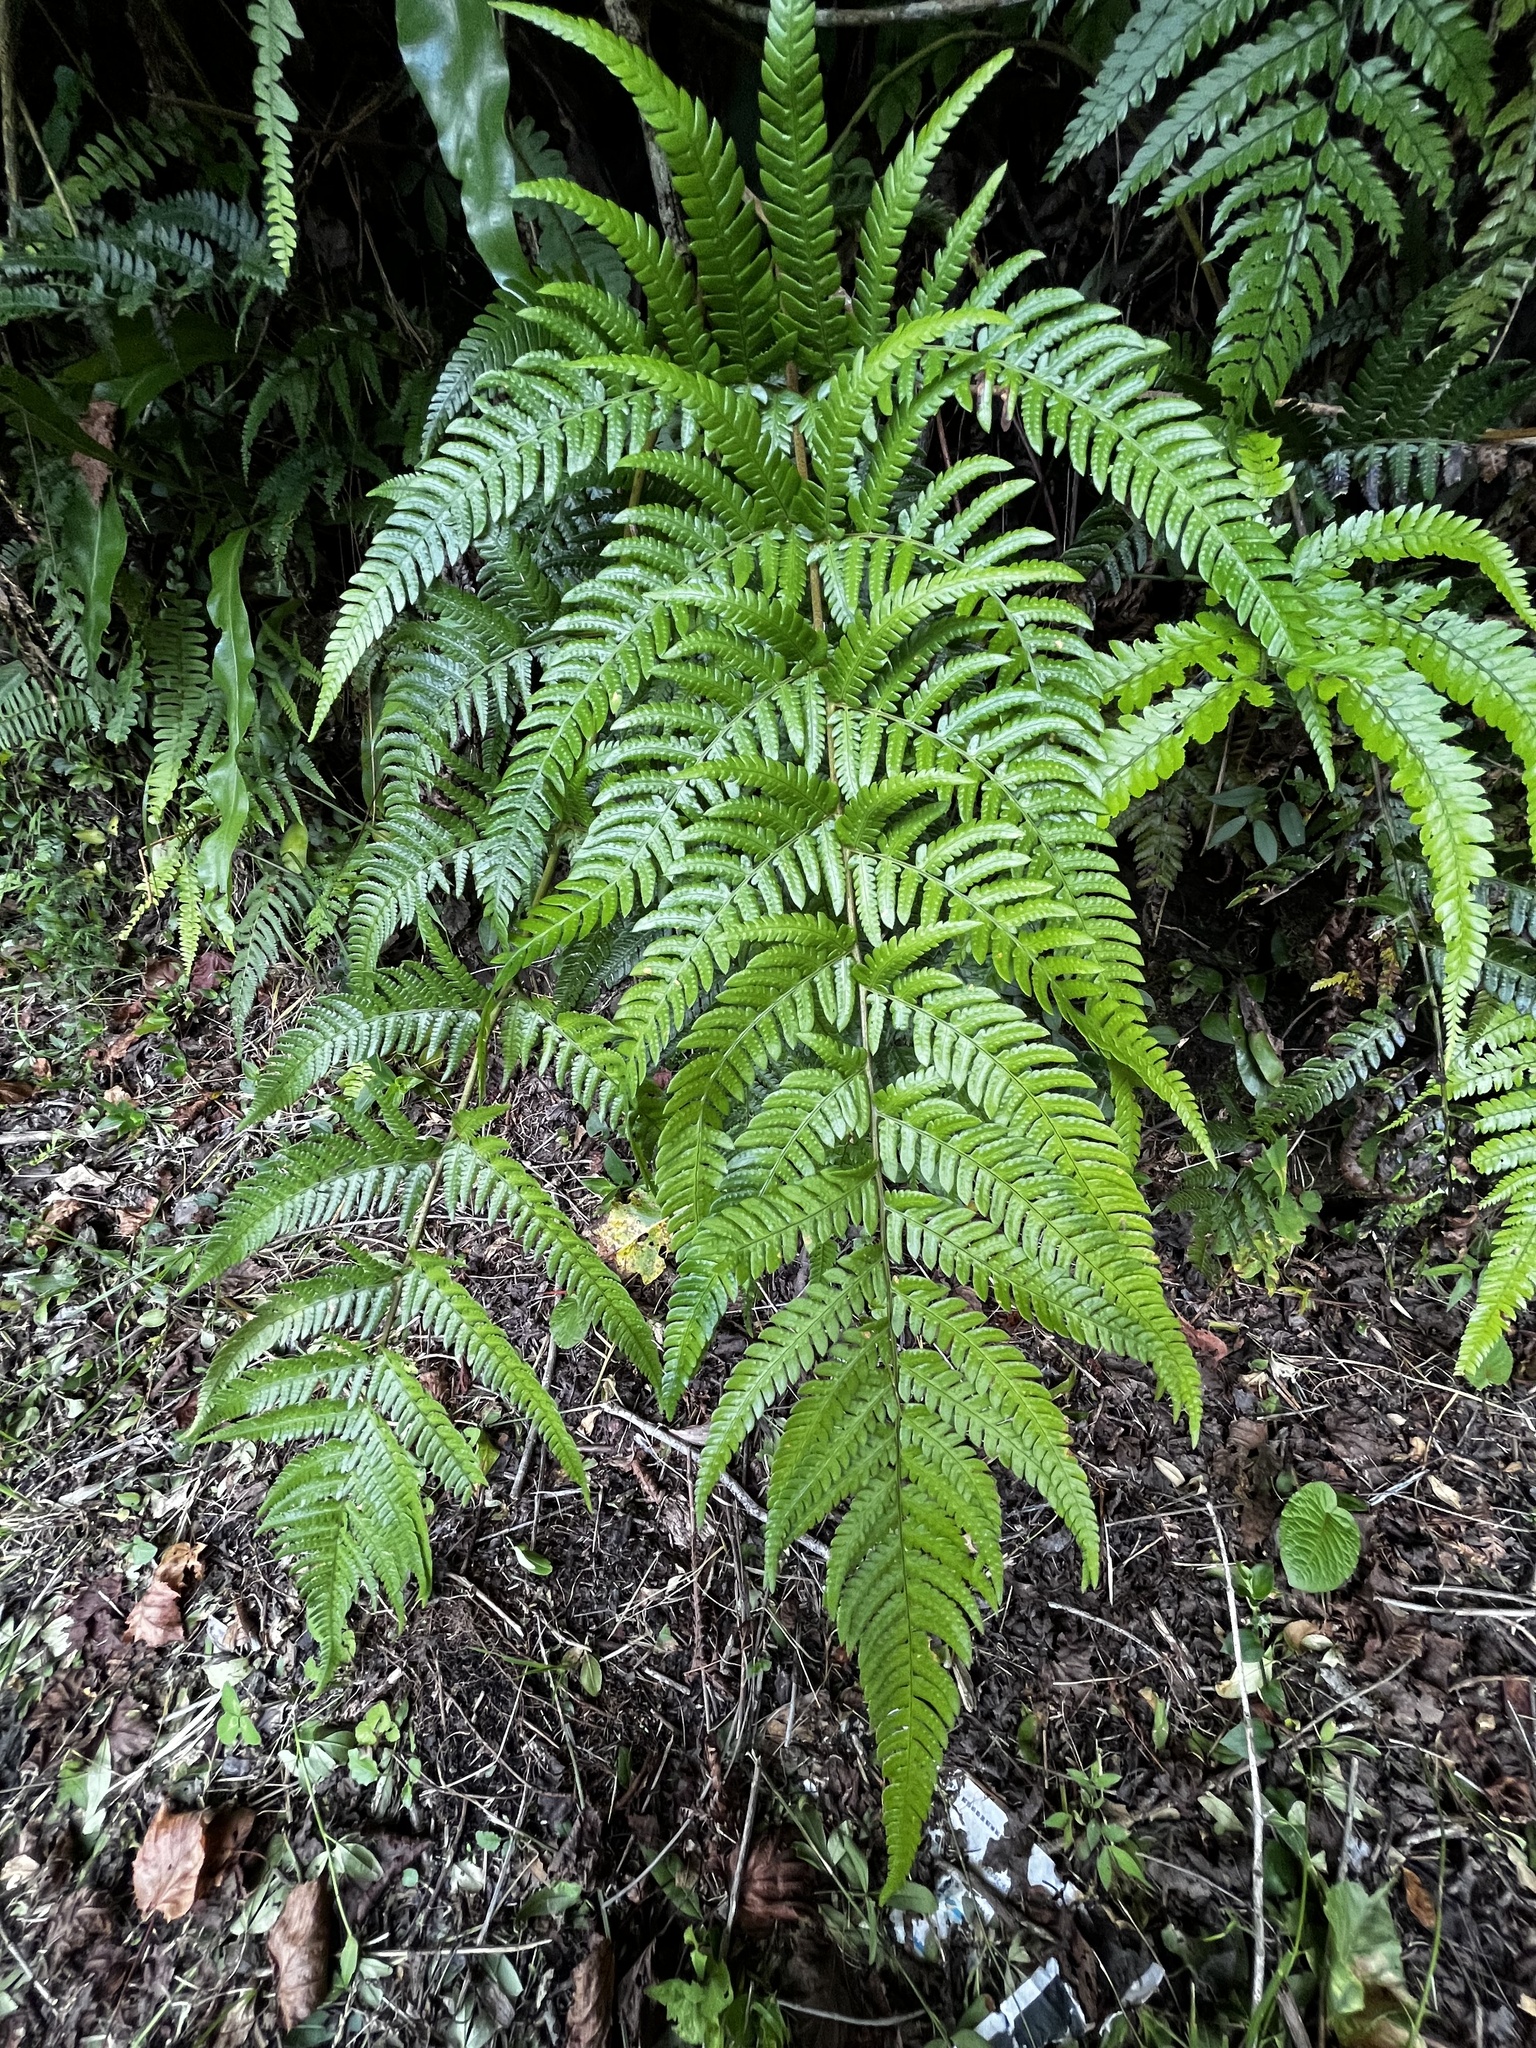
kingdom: Plantae
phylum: Tracheophyta
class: Polypodiopsida
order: Polypodiales
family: Dryopteridaceae
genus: Dryopteris
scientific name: Dryopteris varia
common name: Japanese holly fern
